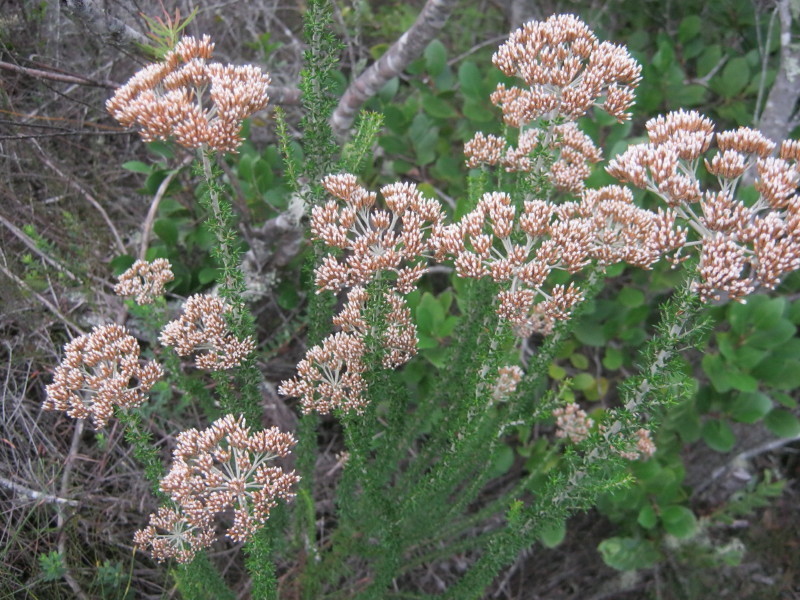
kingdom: Plantae
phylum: Tracheophyta
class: Magnoliopsida
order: Asterales
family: Asteraceae
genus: Metalasia
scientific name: Metalasia densa
